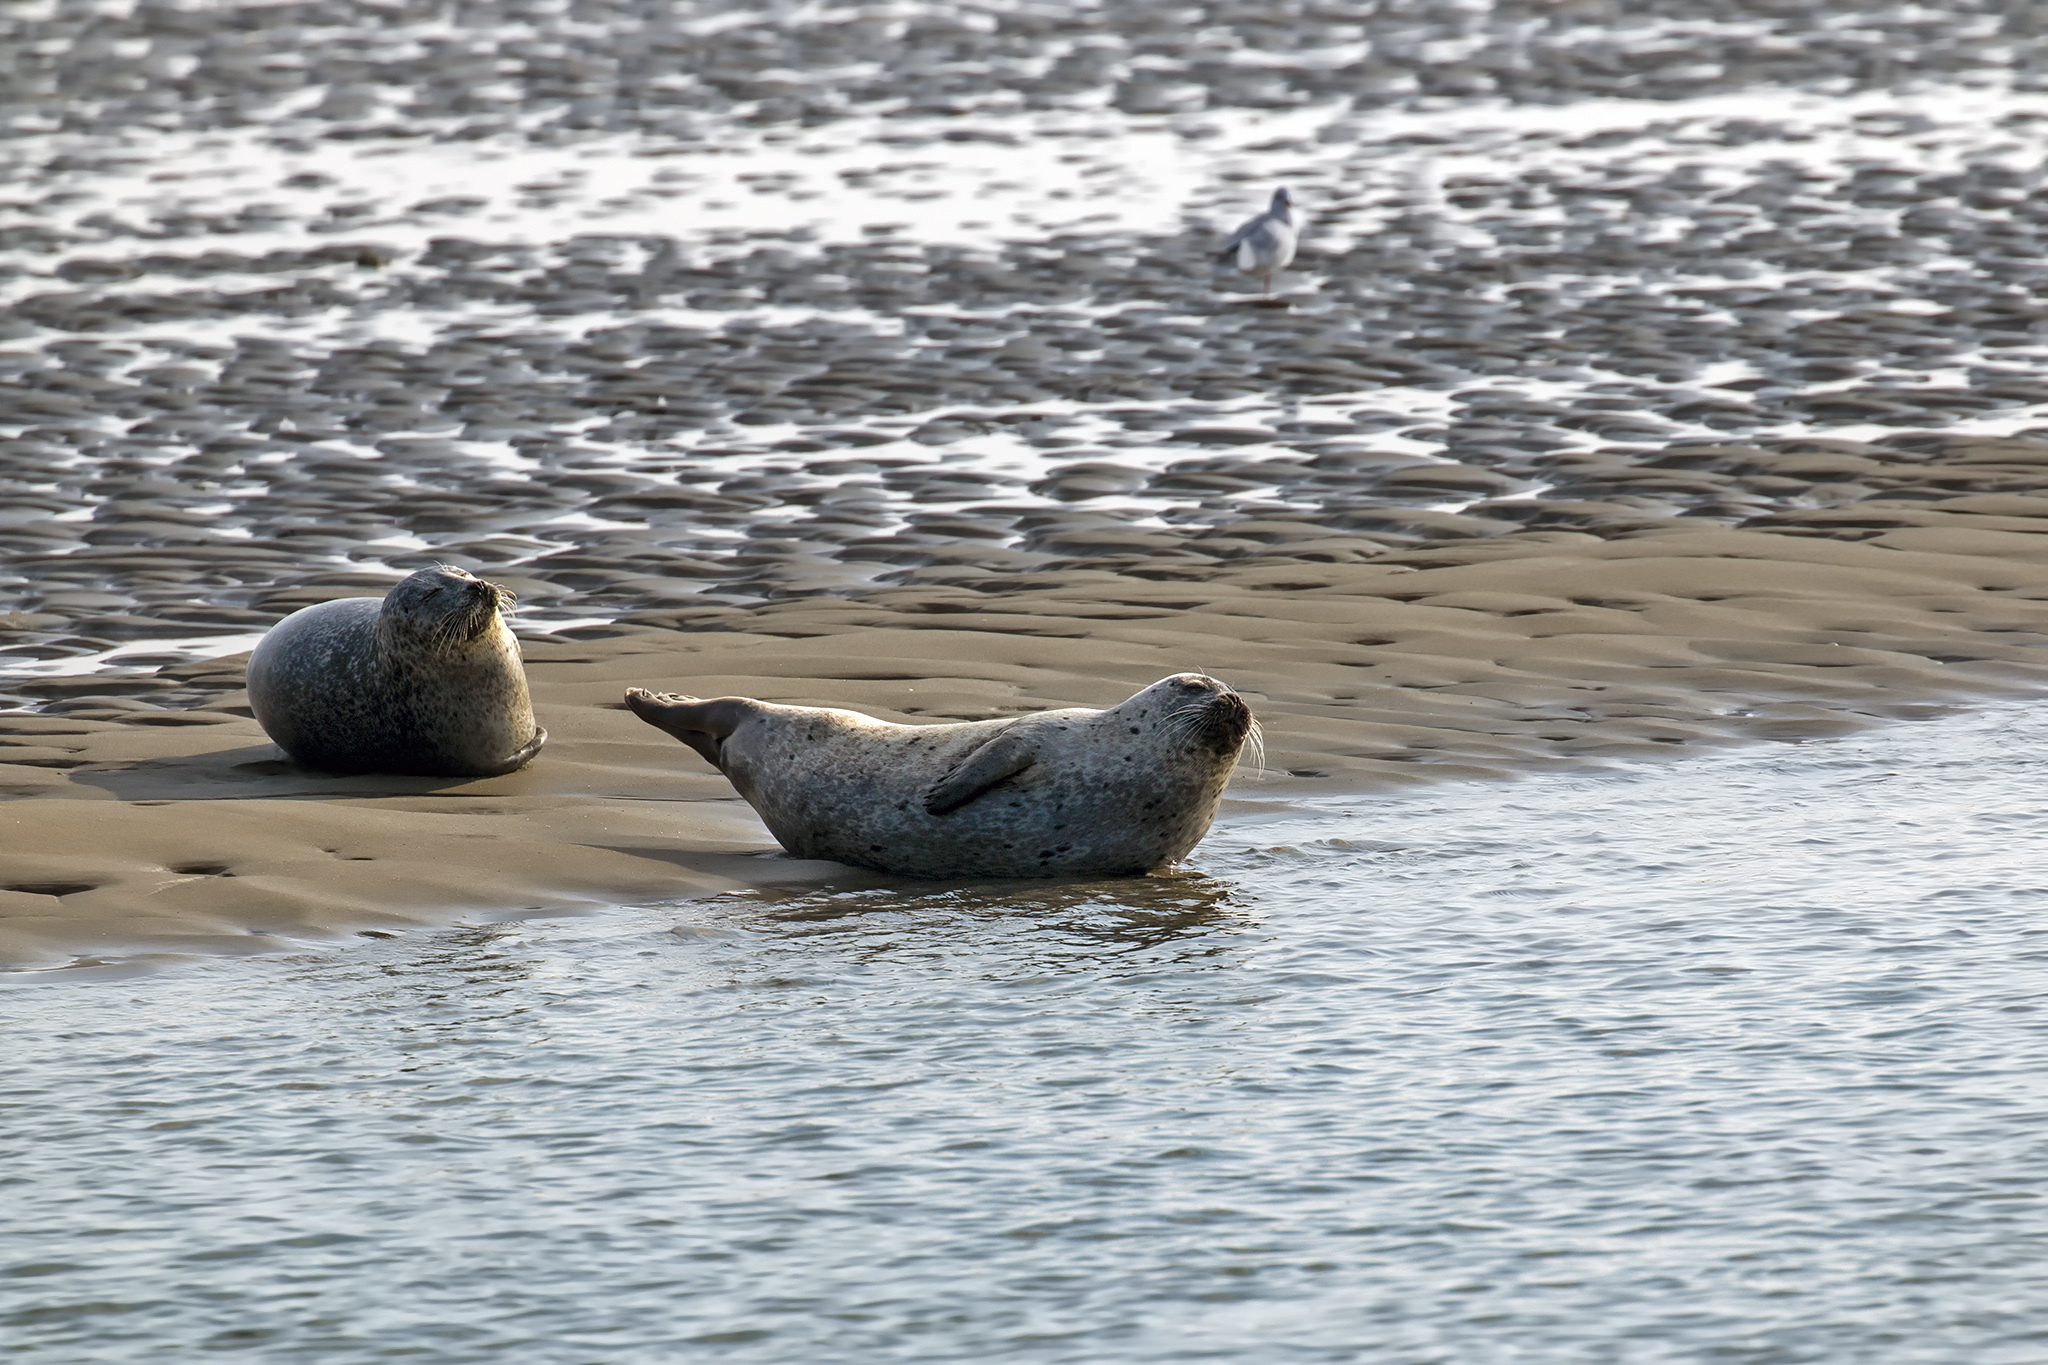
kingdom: Animalia
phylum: Chordata
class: Mammalia
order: Carnivora
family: Phocidae
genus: Phoca
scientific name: Phoca vitulina
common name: Harbor seal
